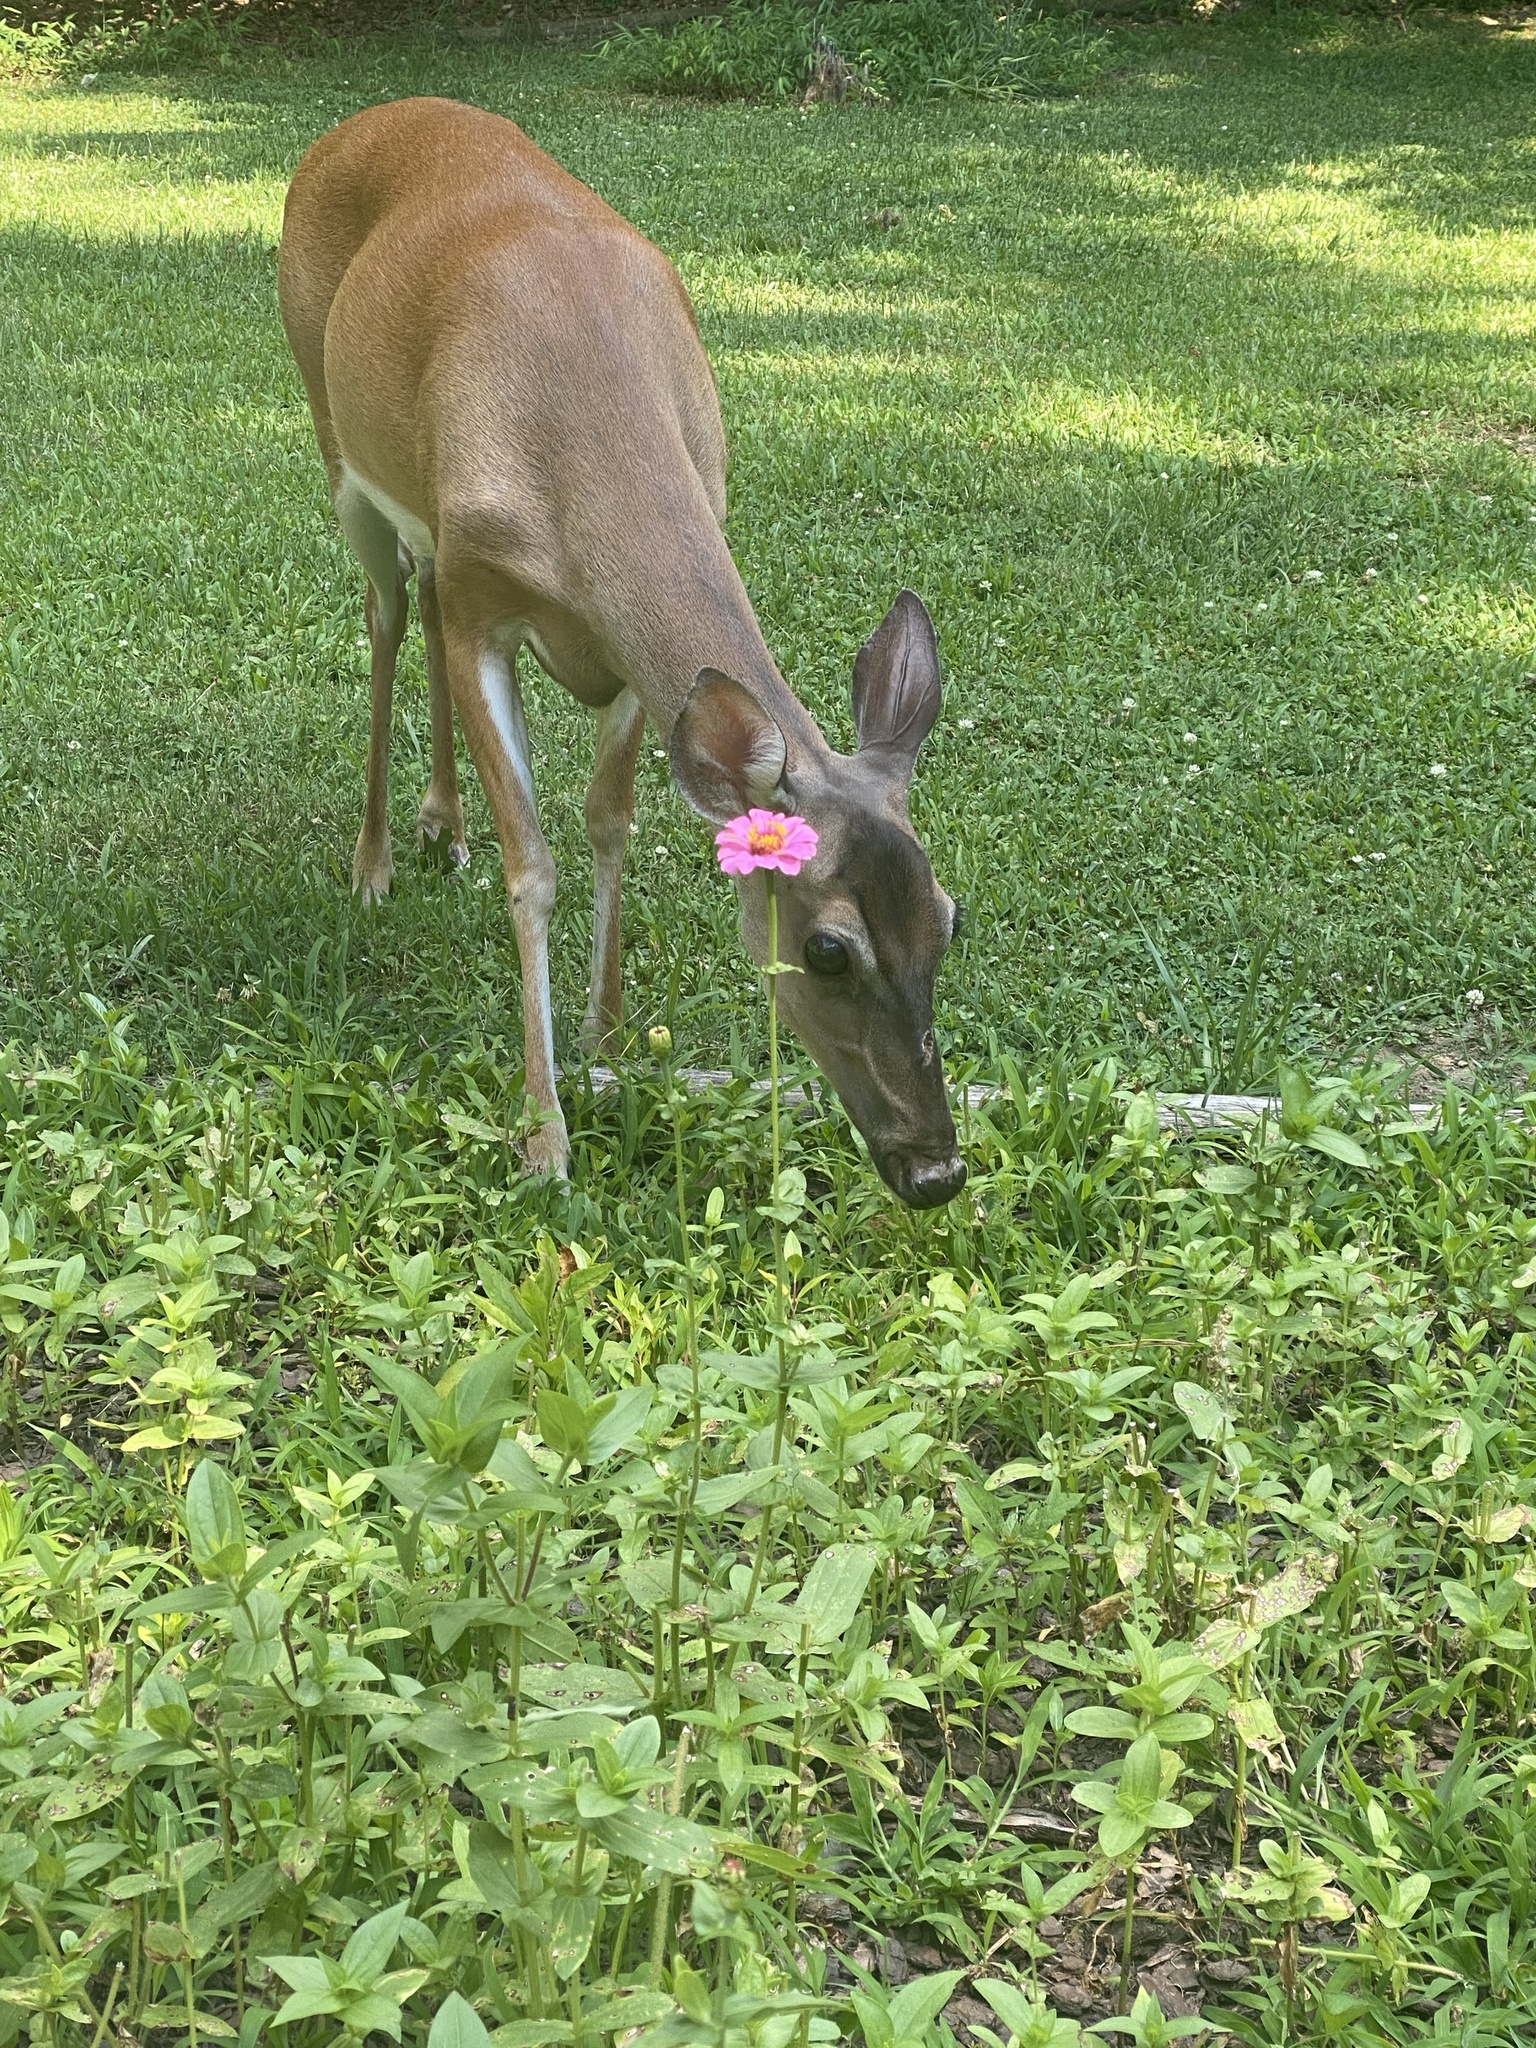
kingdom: Animalia
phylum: Chordata
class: Mammalia
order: Artiodactyla
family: Cervidae
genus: Odocoileus
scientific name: Odocoileus virginianus
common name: White-tailed deer
